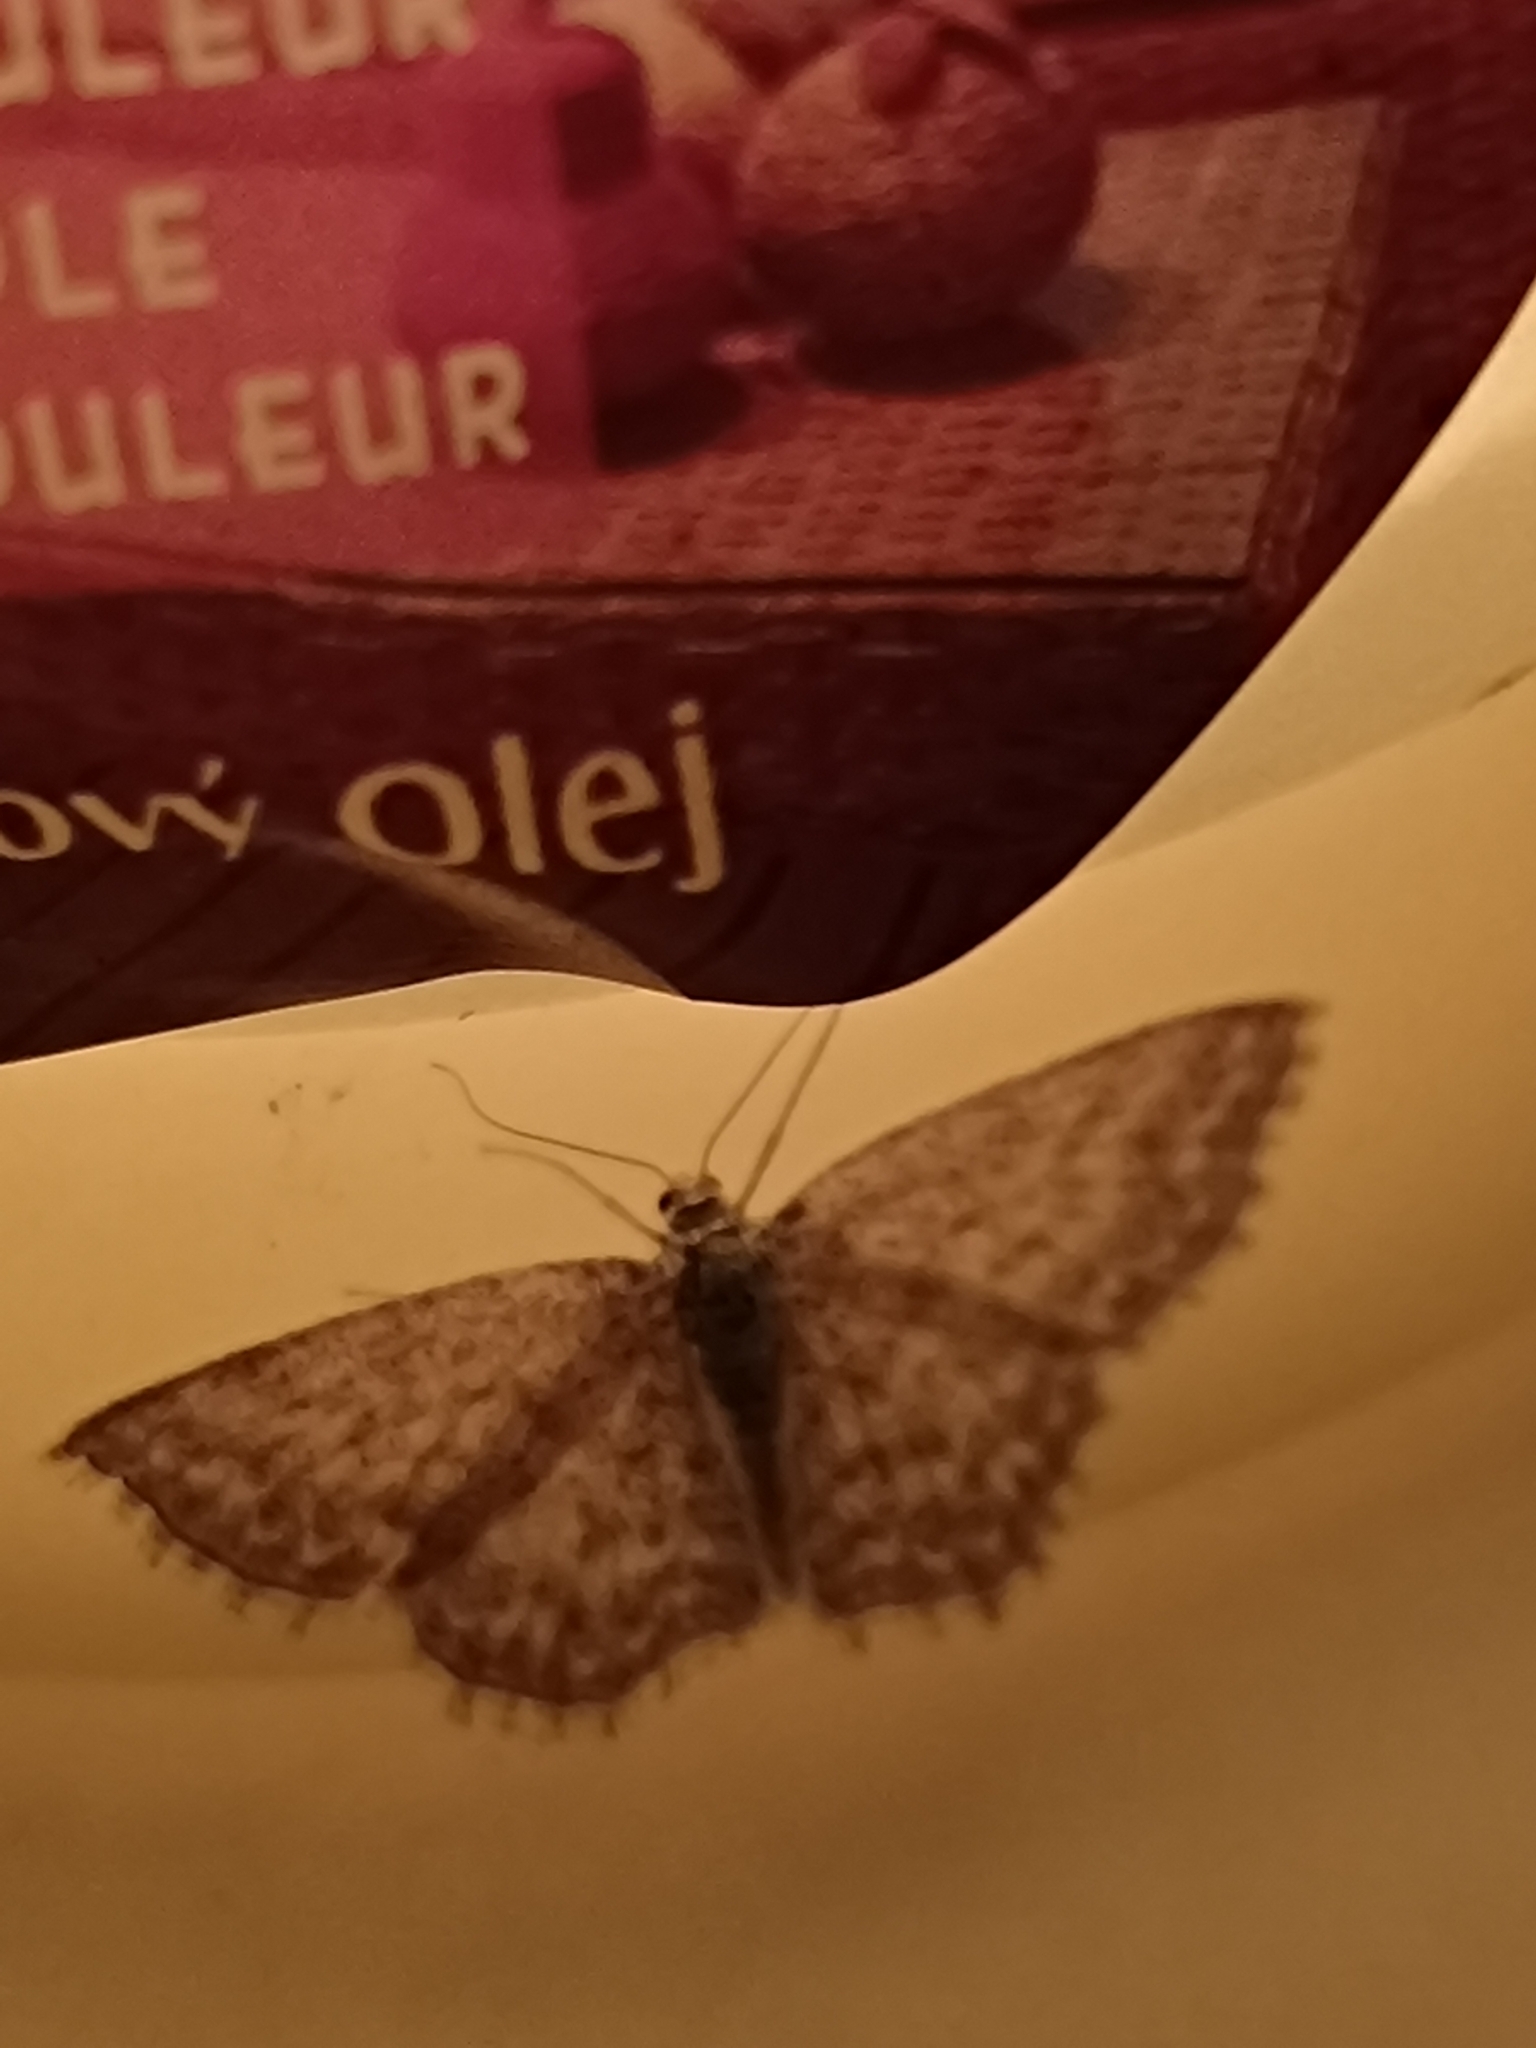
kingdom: Animalia
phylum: Arthropoda
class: Insecta
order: Lepidoptera
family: Geometridae
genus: Scopula
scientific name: Scopula immorata
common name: Lewes wave
